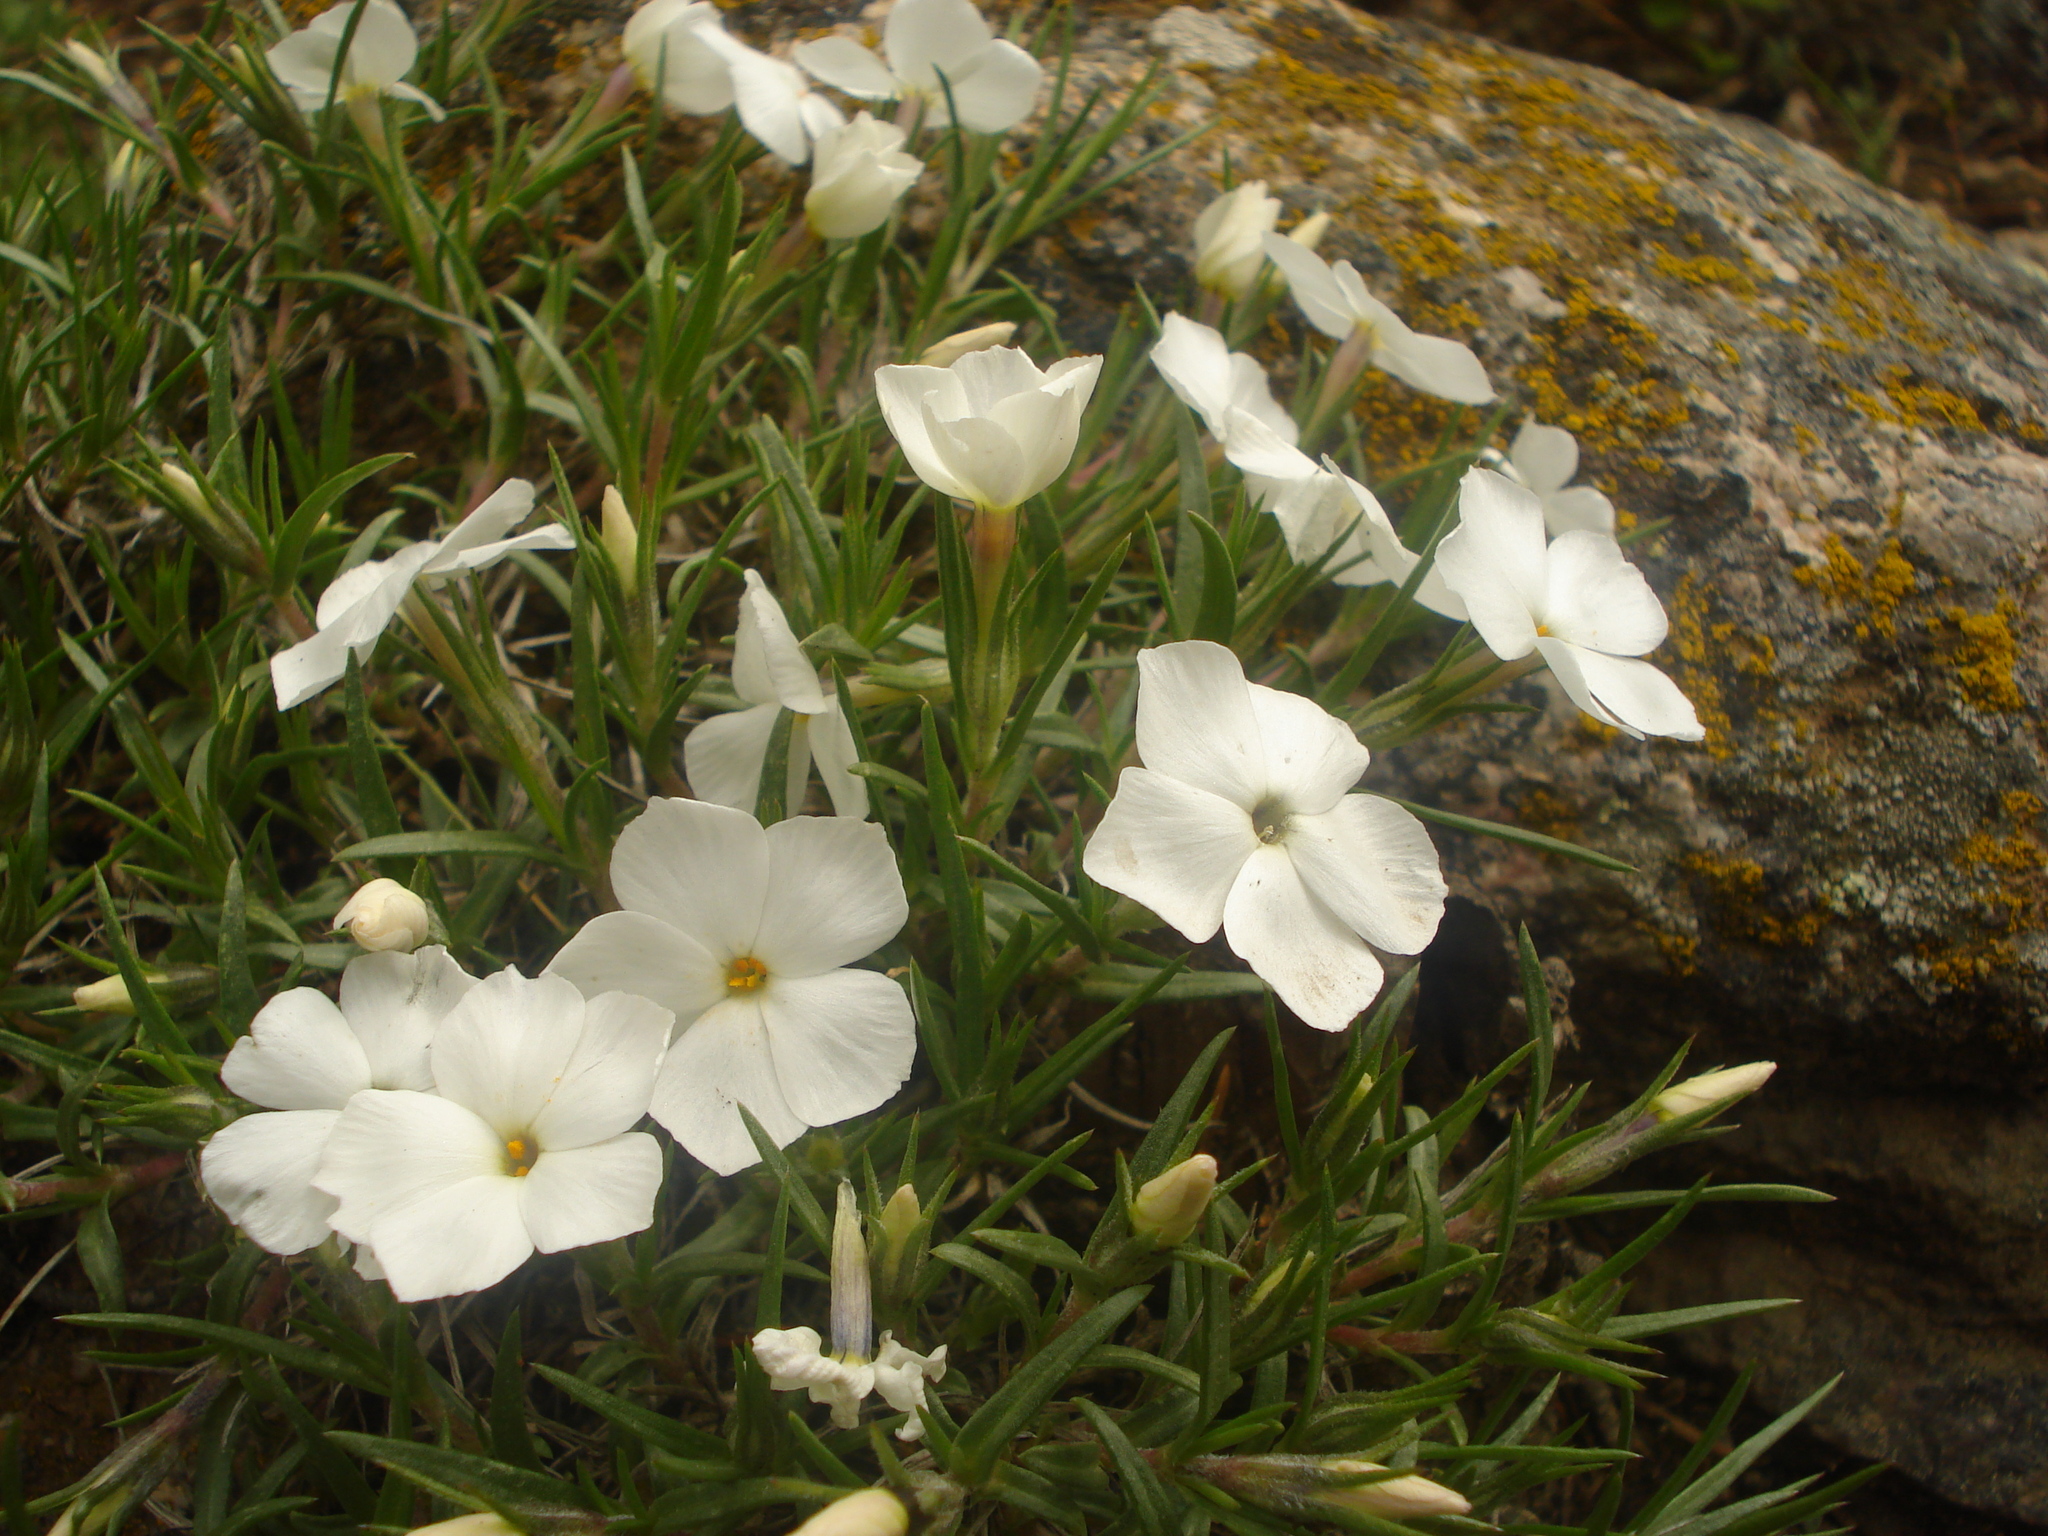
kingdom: Plantae
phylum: Tracheophyta
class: Magnoliopsida
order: Ericales
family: Polemoniaceae
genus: Phlox
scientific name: Phlox multiflora
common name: Rocky mountain phlox
